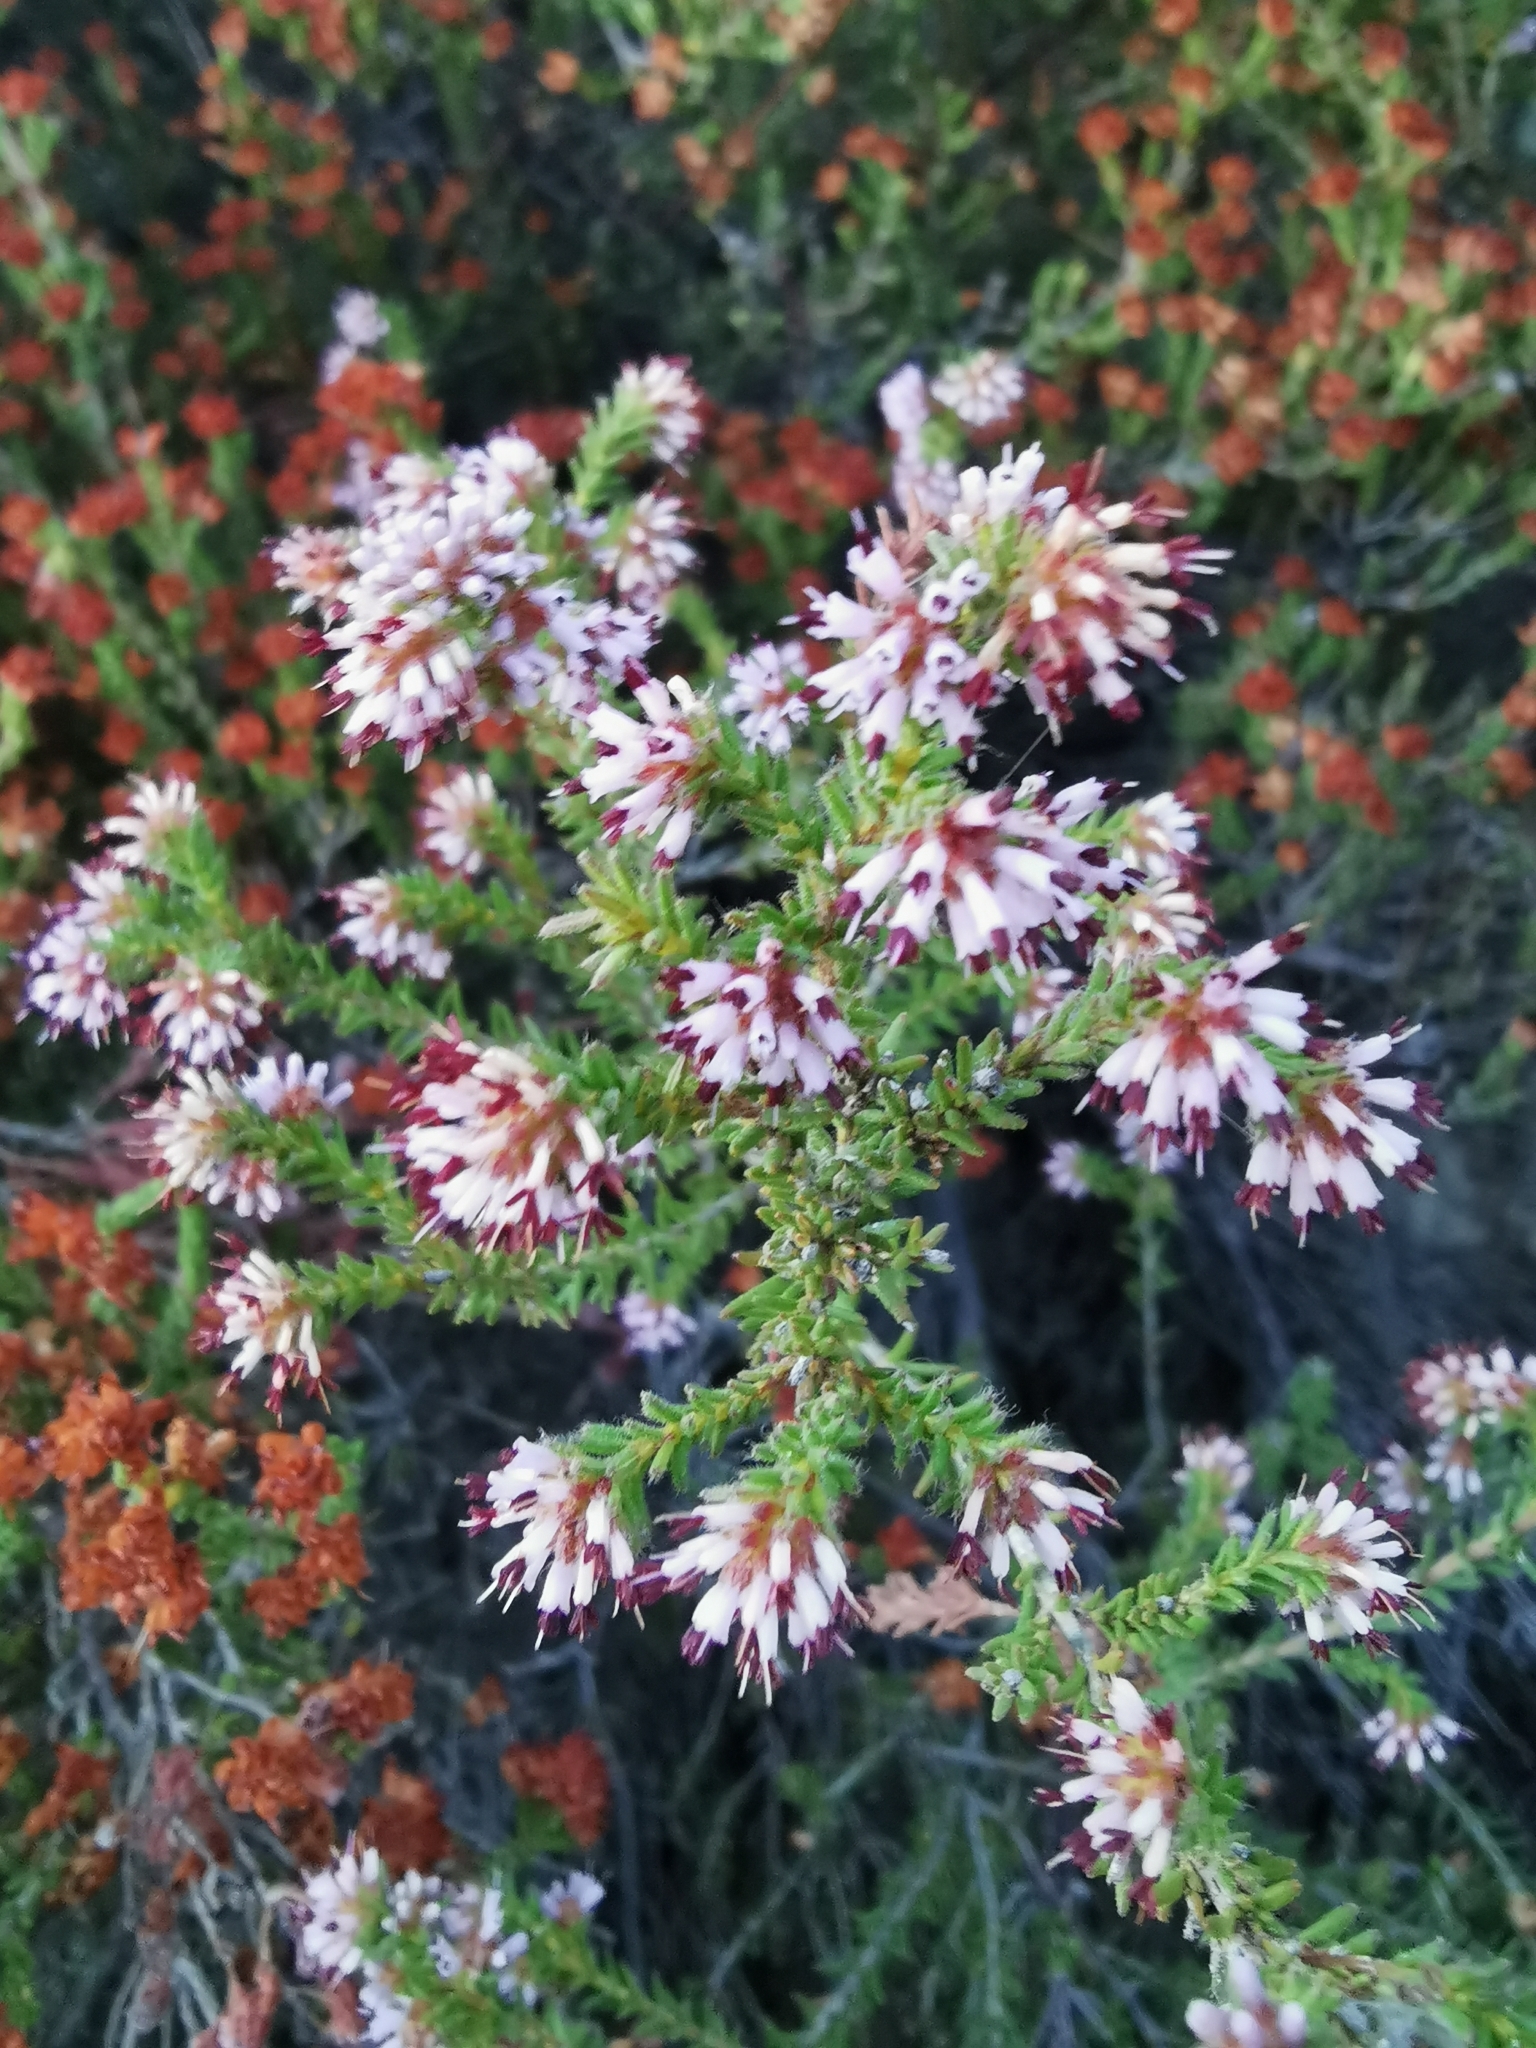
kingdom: Plantae
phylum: Tracheophyta
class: Magnoliopsida
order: Ericales
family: Ericaceae
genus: Erica
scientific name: Erica ericoides
